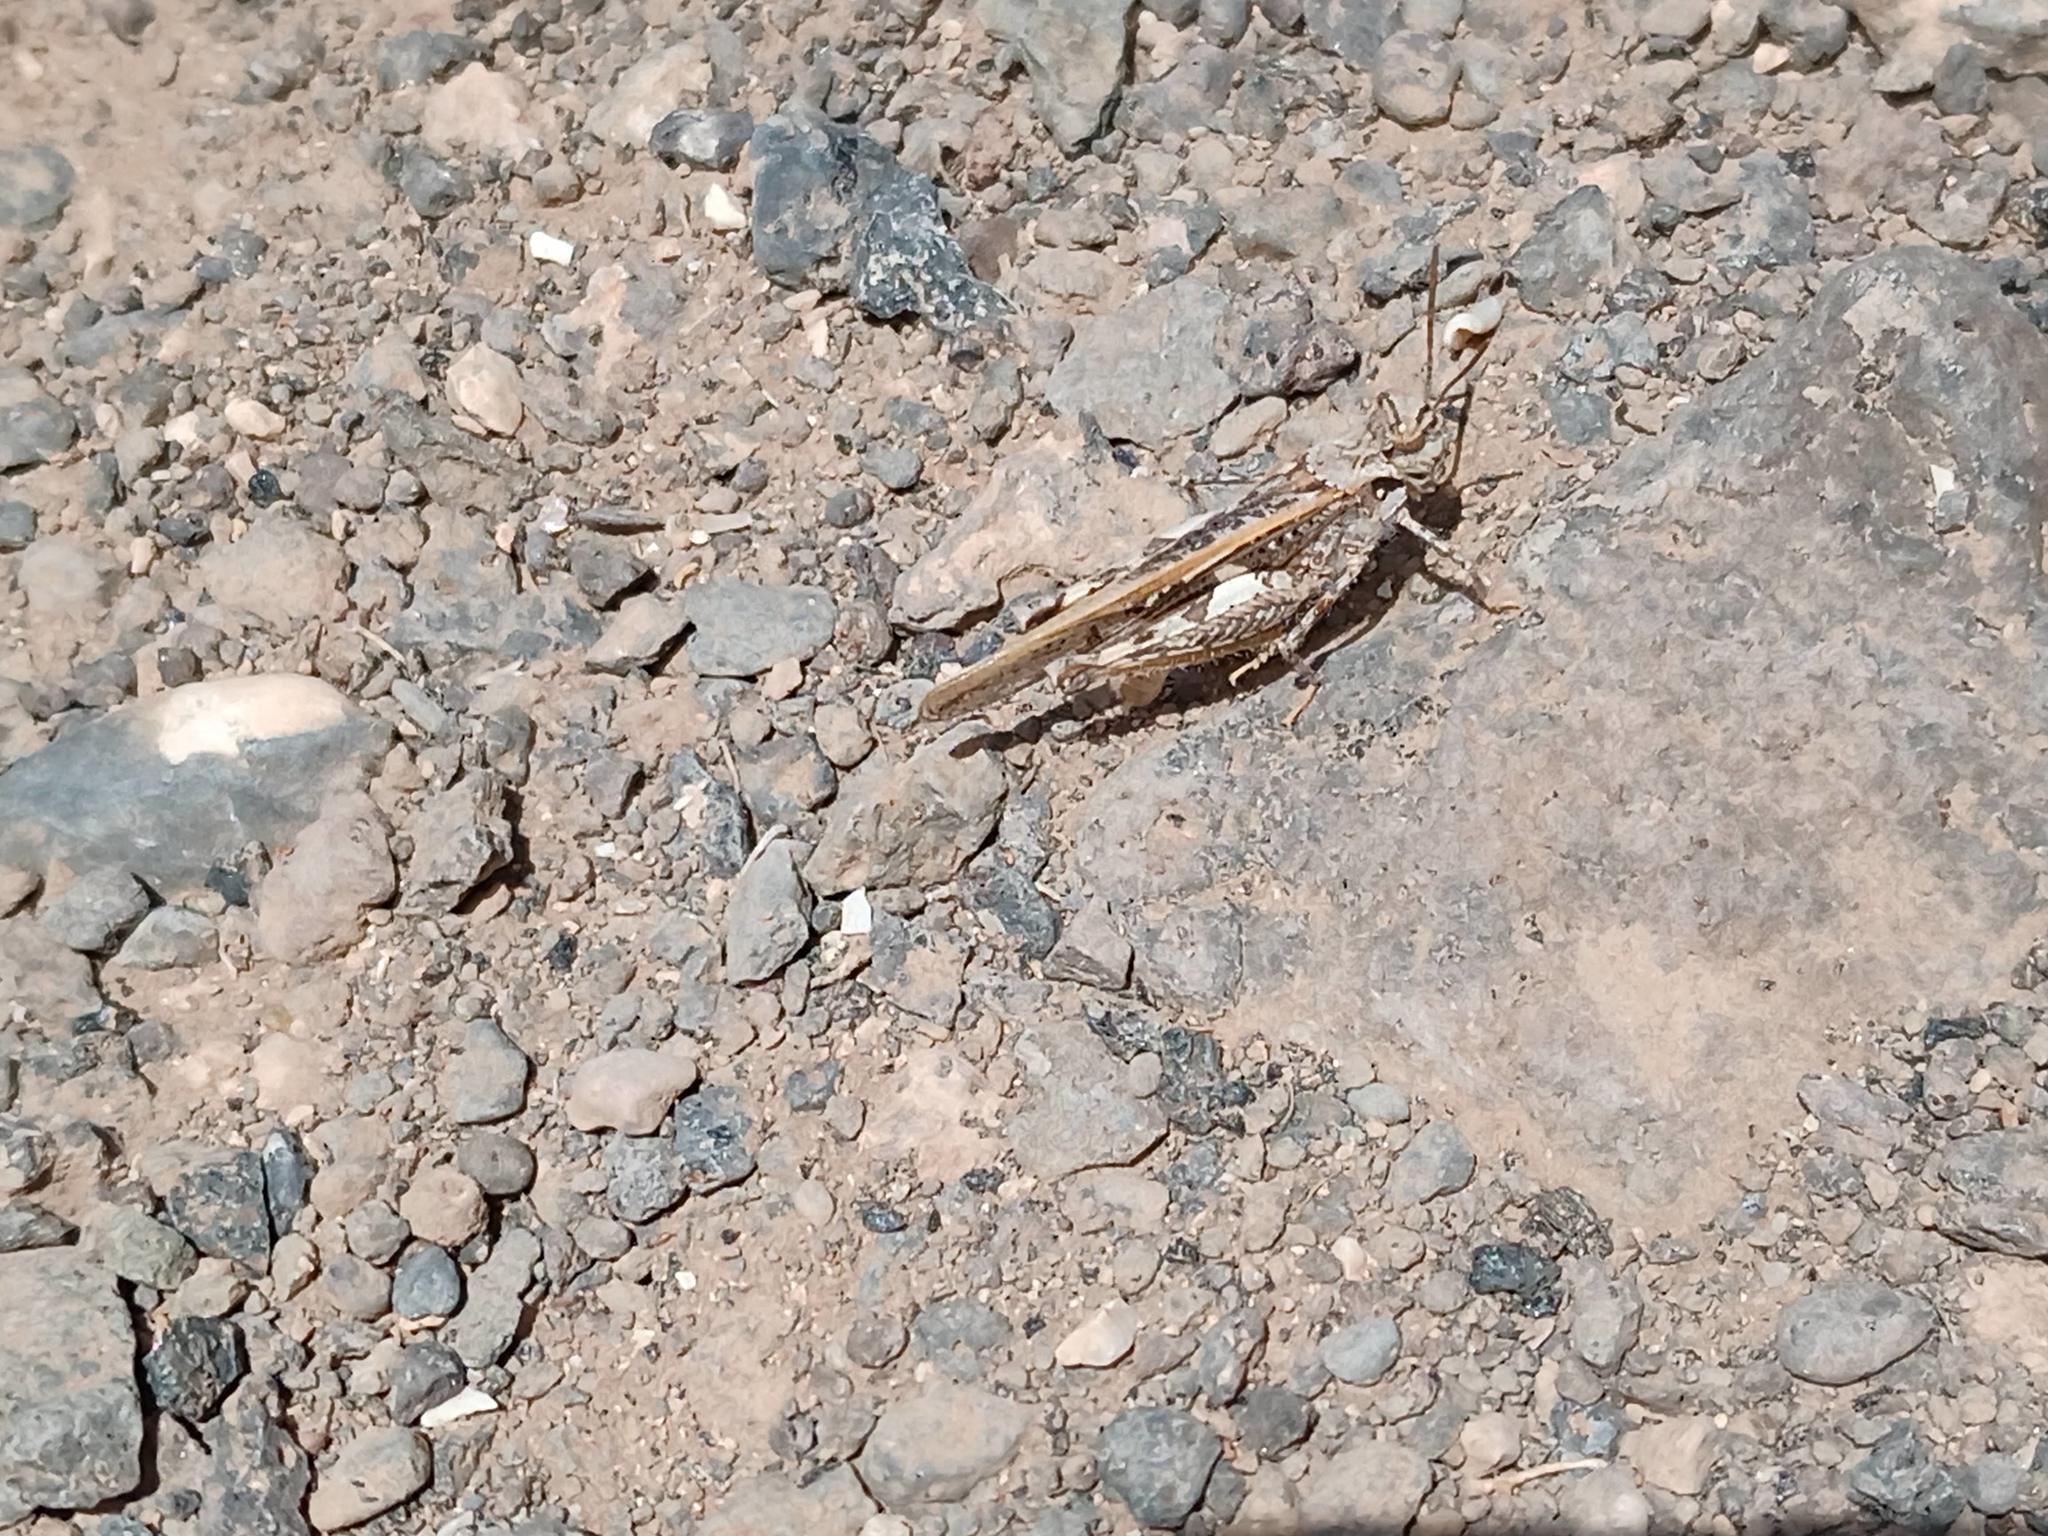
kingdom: Animalia
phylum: Arthropoda
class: Insecta
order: Orthoptera
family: Acrididae
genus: Acrotylus
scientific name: Acrotylus insubricus
